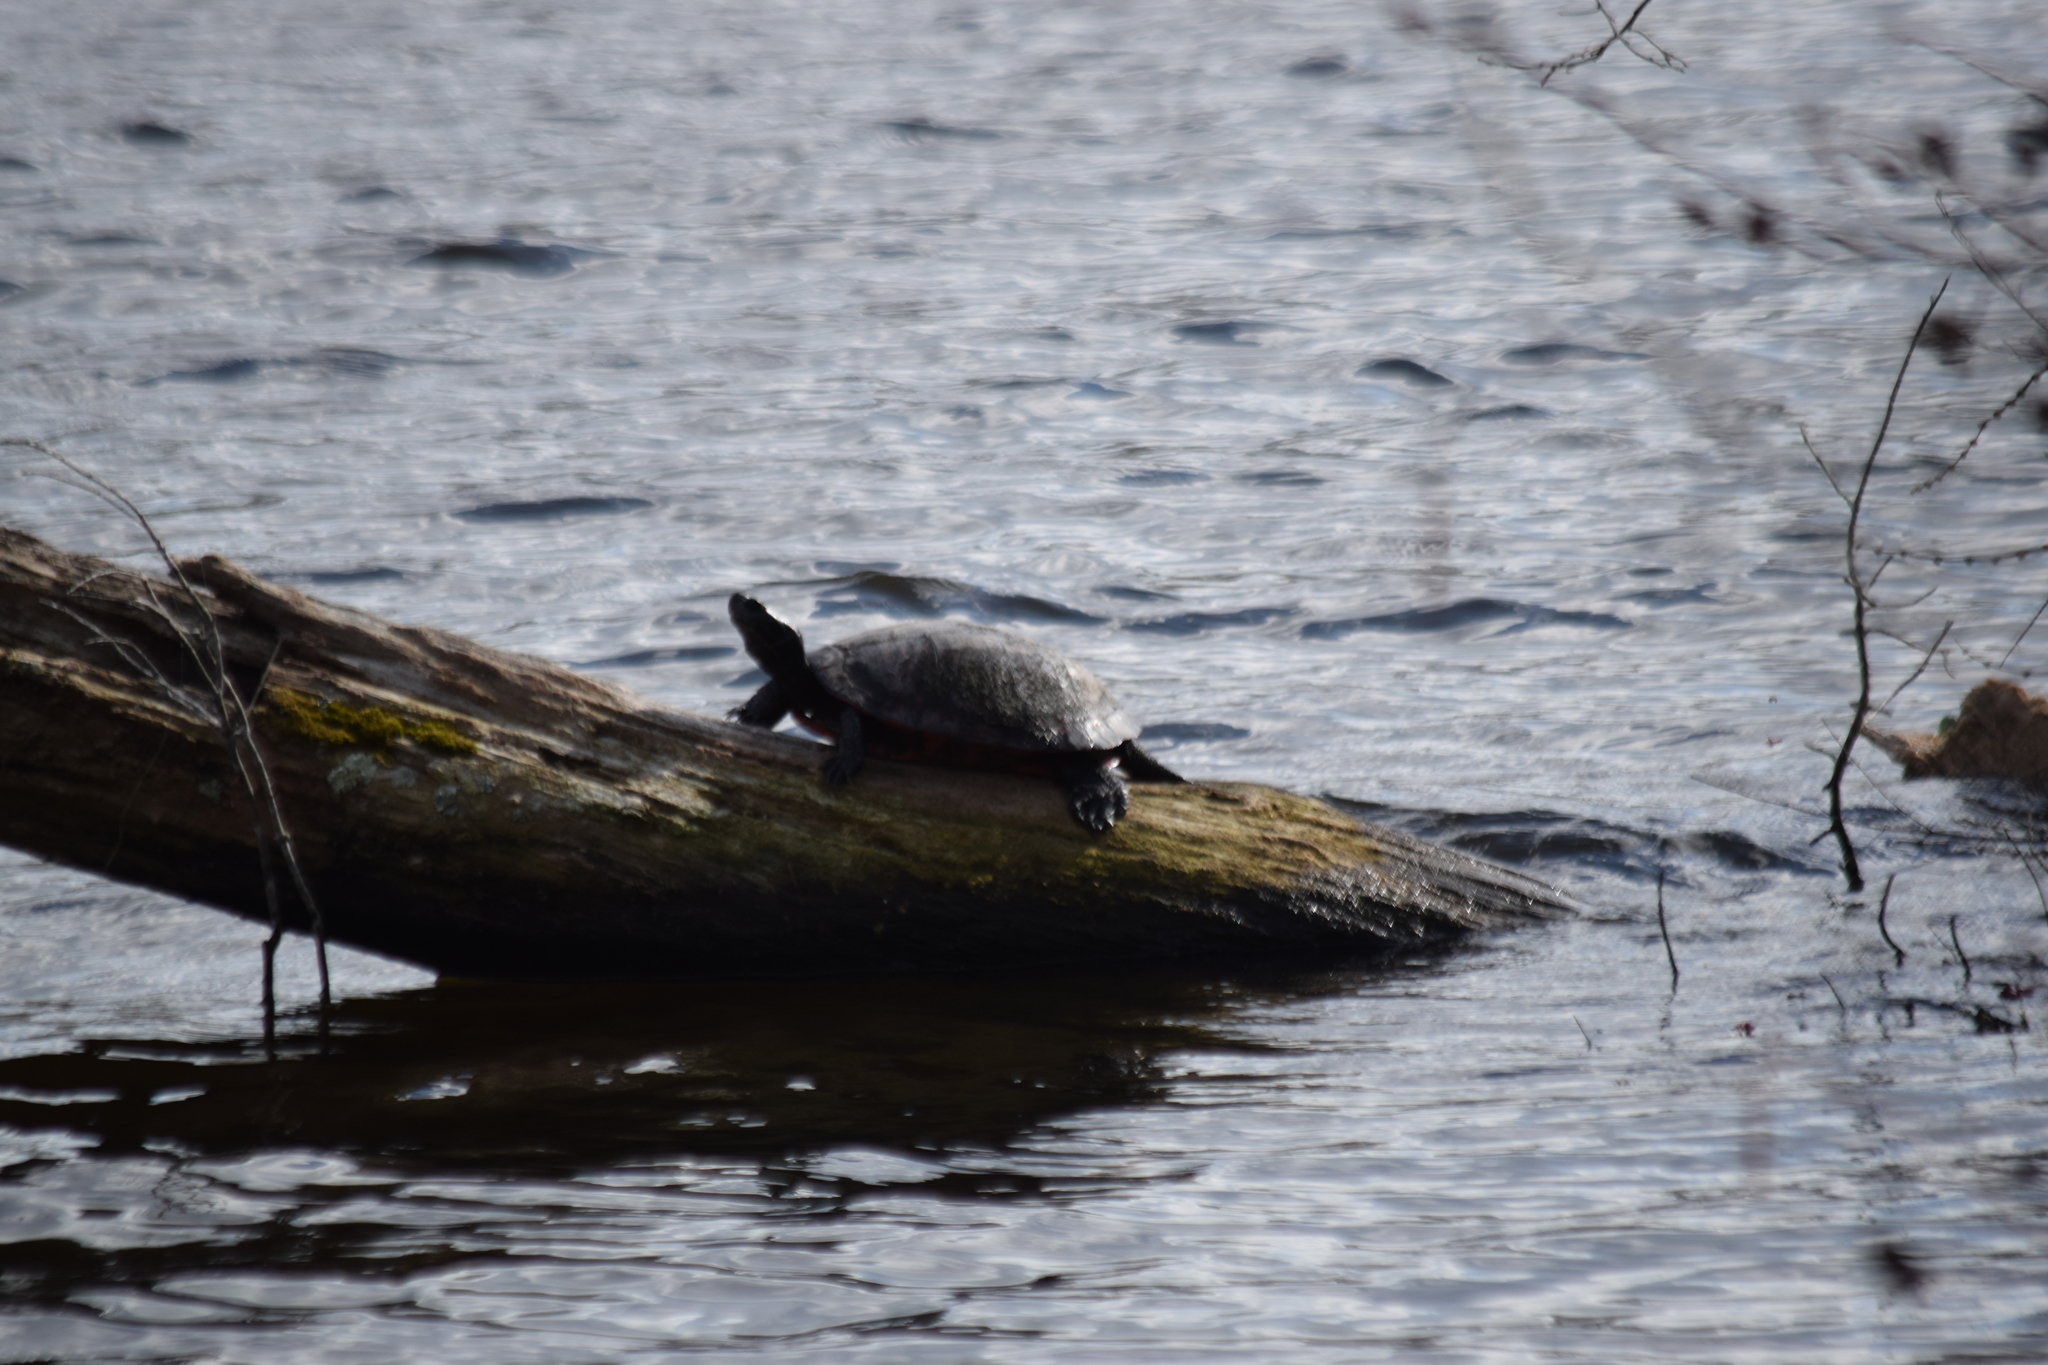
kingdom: Animalia
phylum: Chordata
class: Testudines
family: Emydidae
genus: Pseudemys
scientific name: Pseudemys rubriventris
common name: American red-bellied turtle
